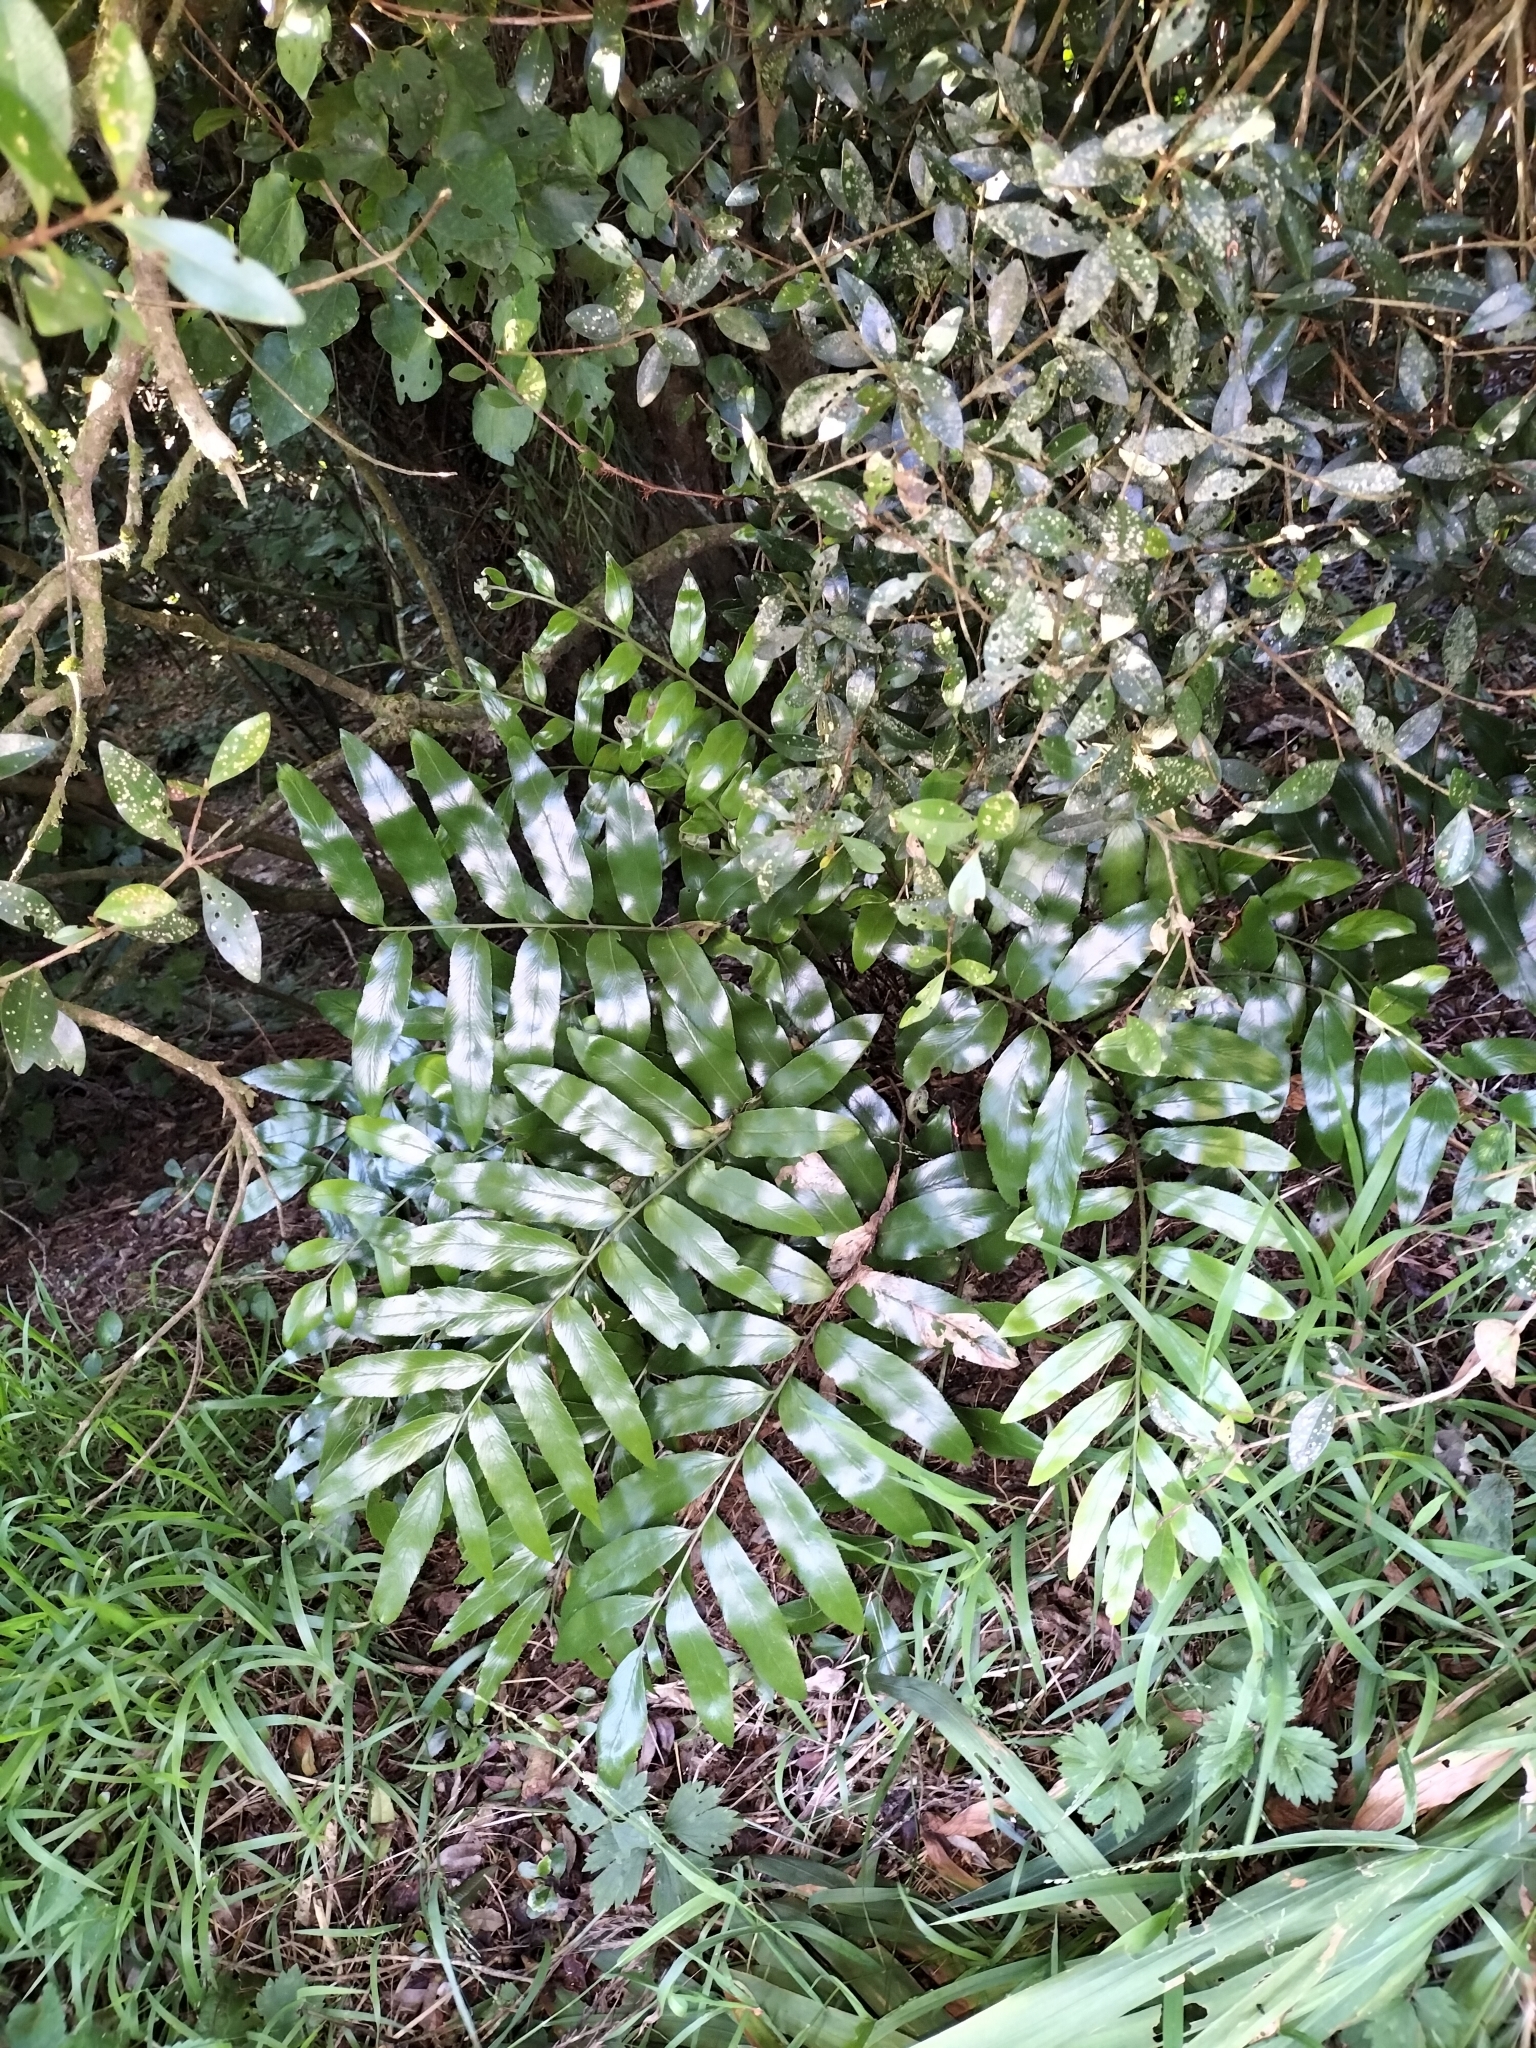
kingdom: Plantae
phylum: Tracheophyta
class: Polypodiopsida
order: Polypodiales
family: Aspleniaceae
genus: Asplenium
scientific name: Asplenium oblongifolium
